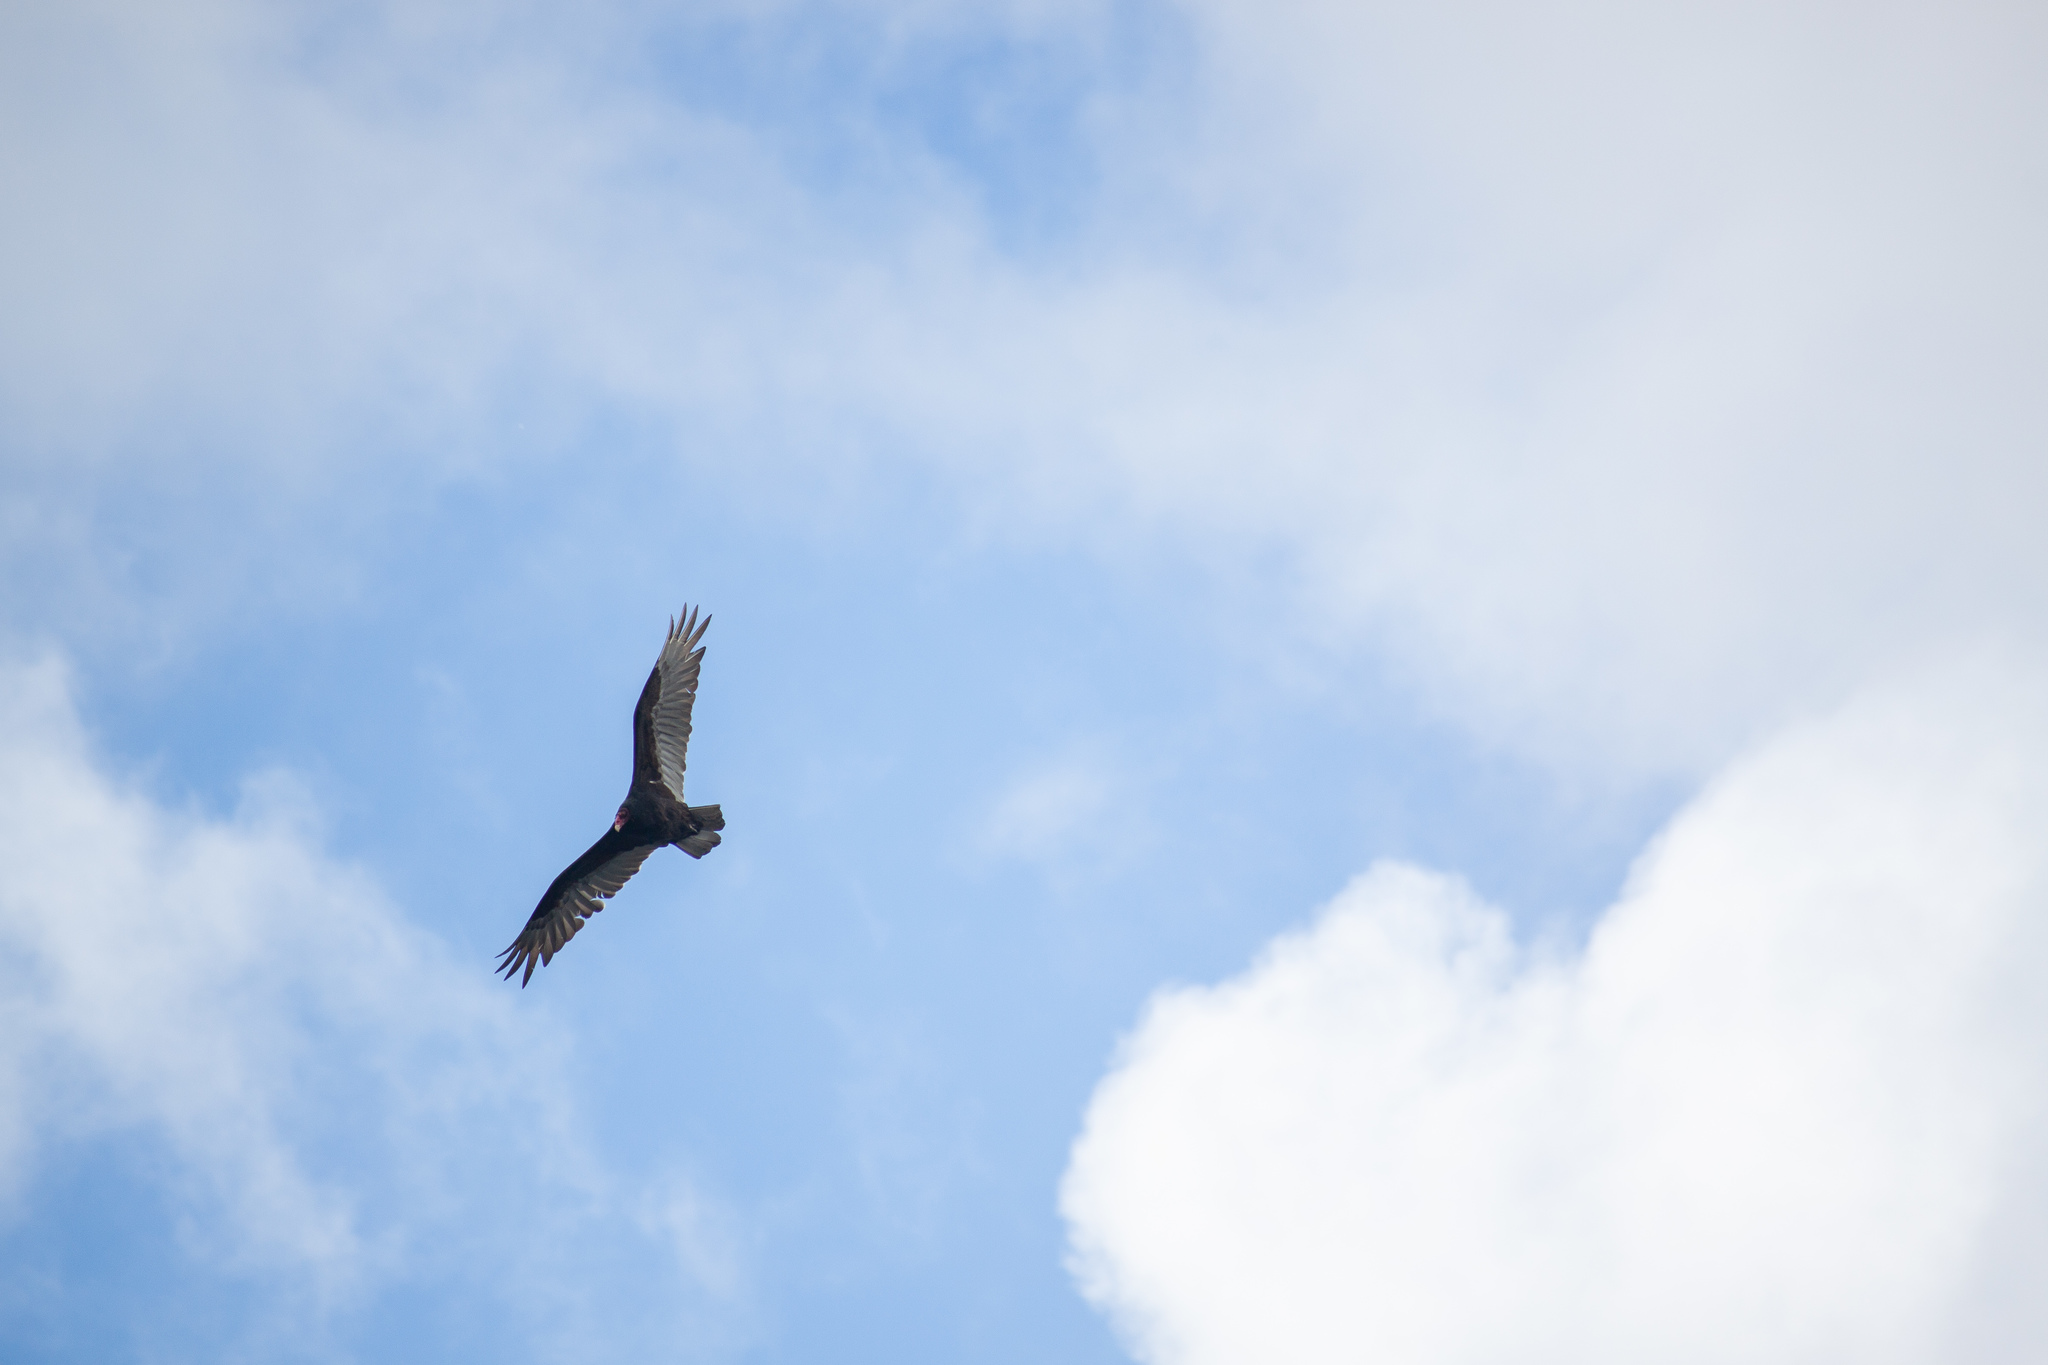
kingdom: Animalia
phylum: Chordata
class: Aves
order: Accipitriformes
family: Cathartidae
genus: Cathartes
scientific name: Cathartes aura
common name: Turkey vulture
